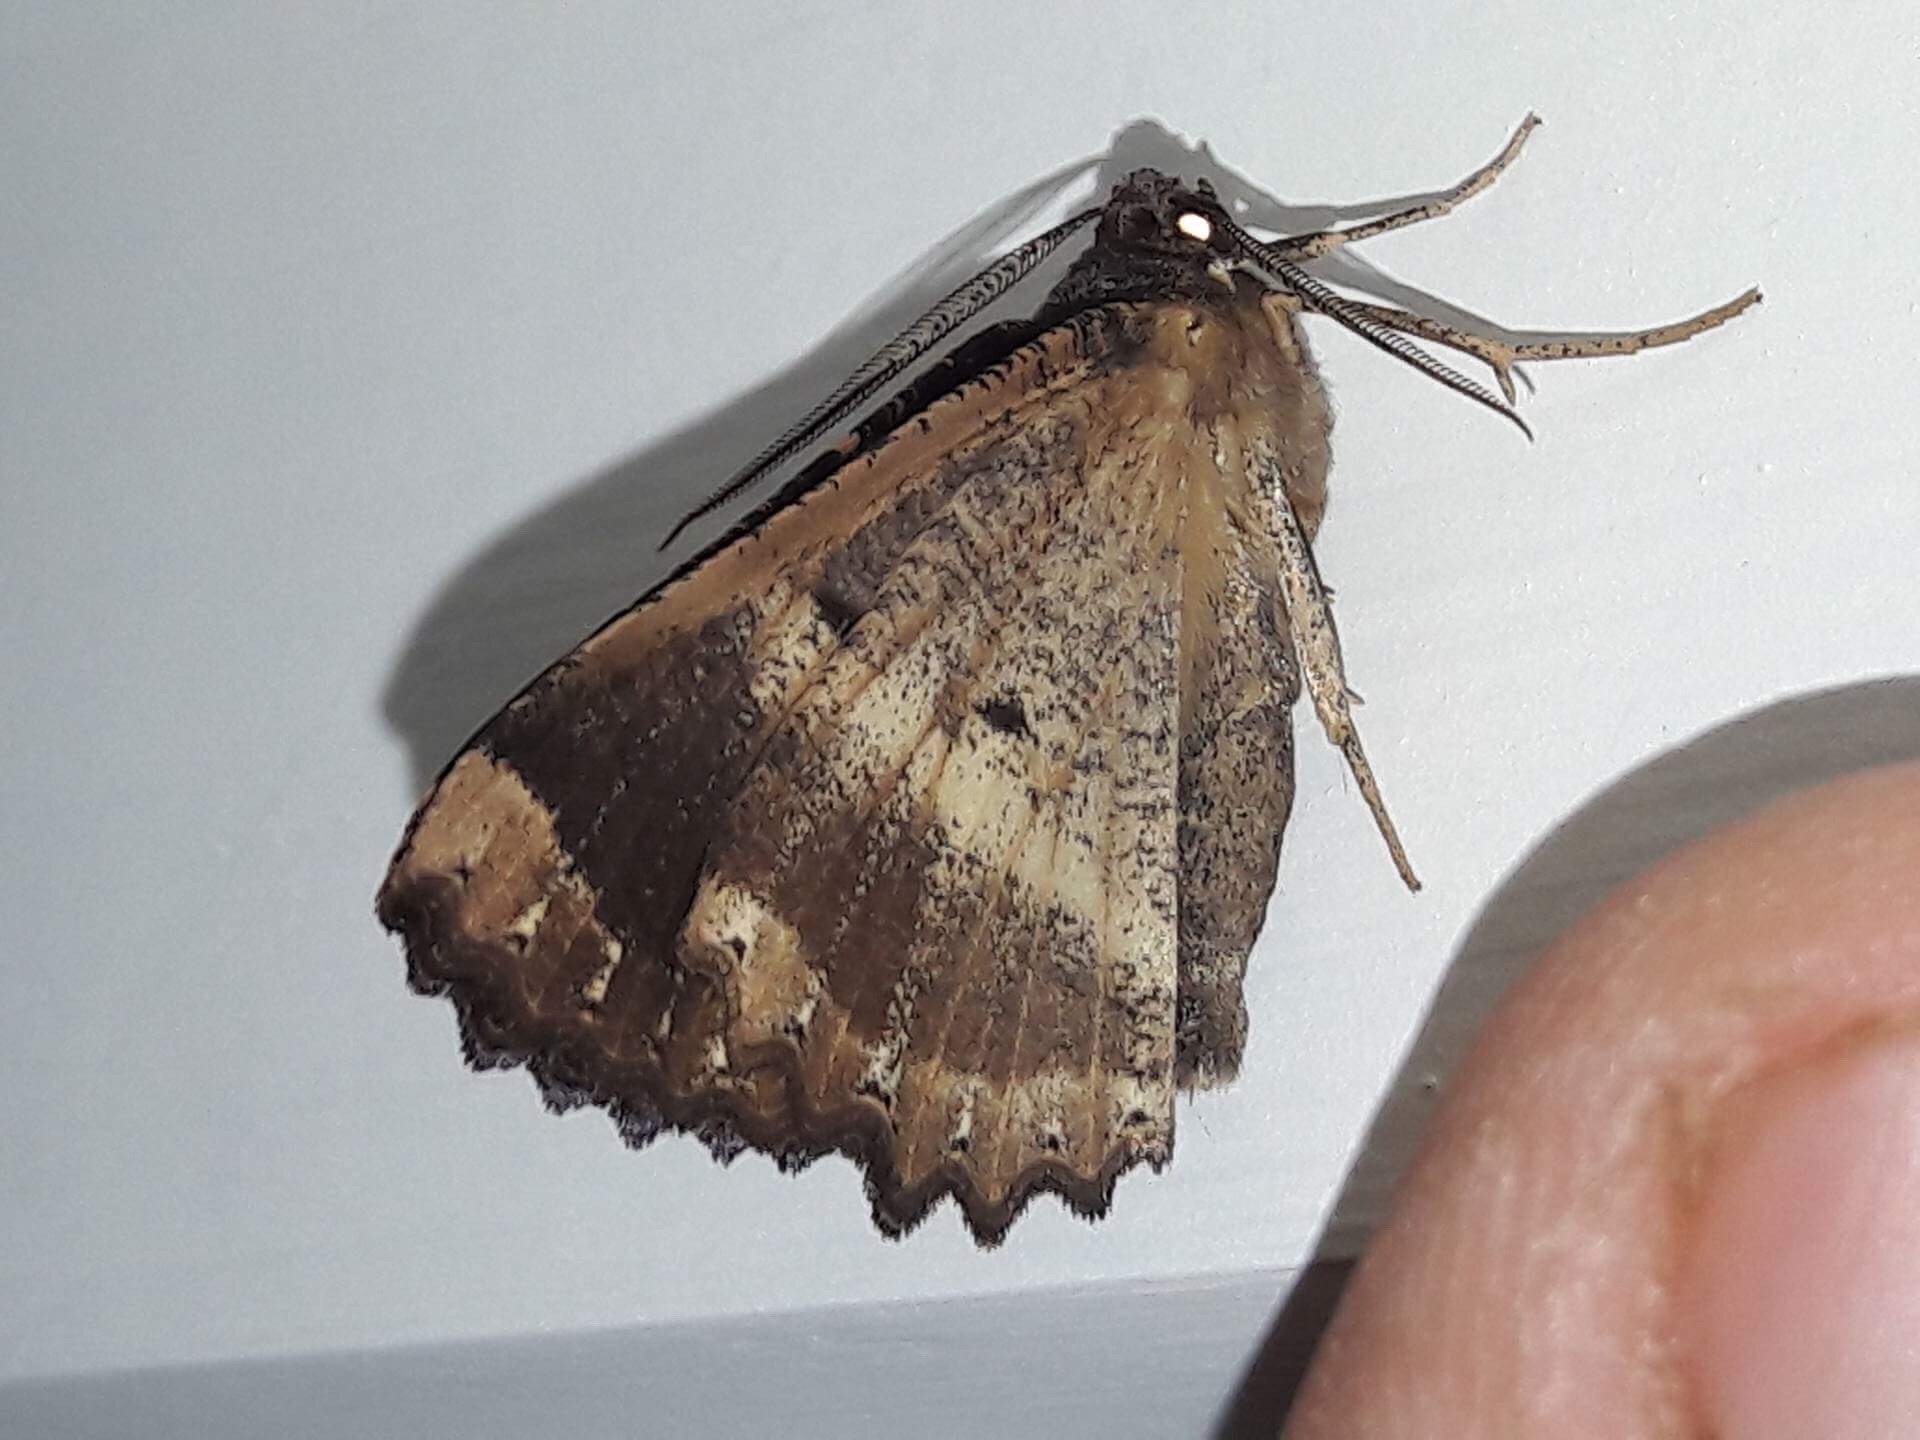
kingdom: Animalia
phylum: Arthropoda
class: Insecta
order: Lepidoptera
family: Geometridae
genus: Gellonia
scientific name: Gellonia dejectaria
